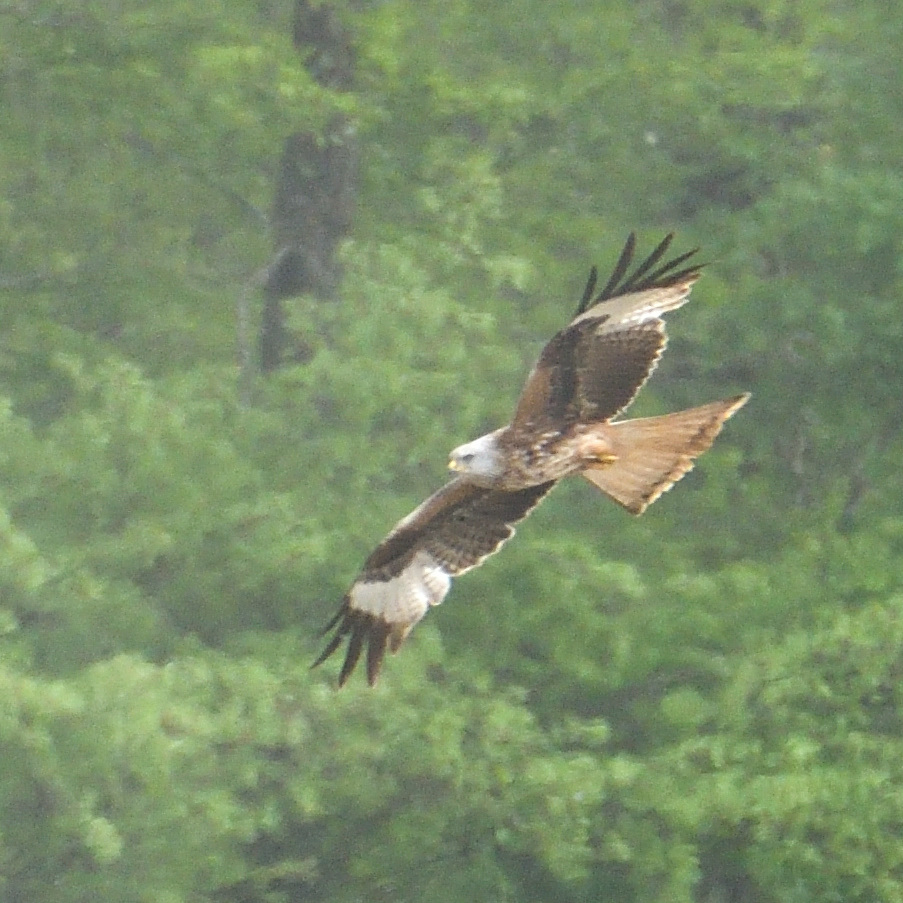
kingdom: Animalia
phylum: Chordata
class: Aves
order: Accipitriformes
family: Accipitridae
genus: Milvus
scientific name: Milvus milvus
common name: Red kite
